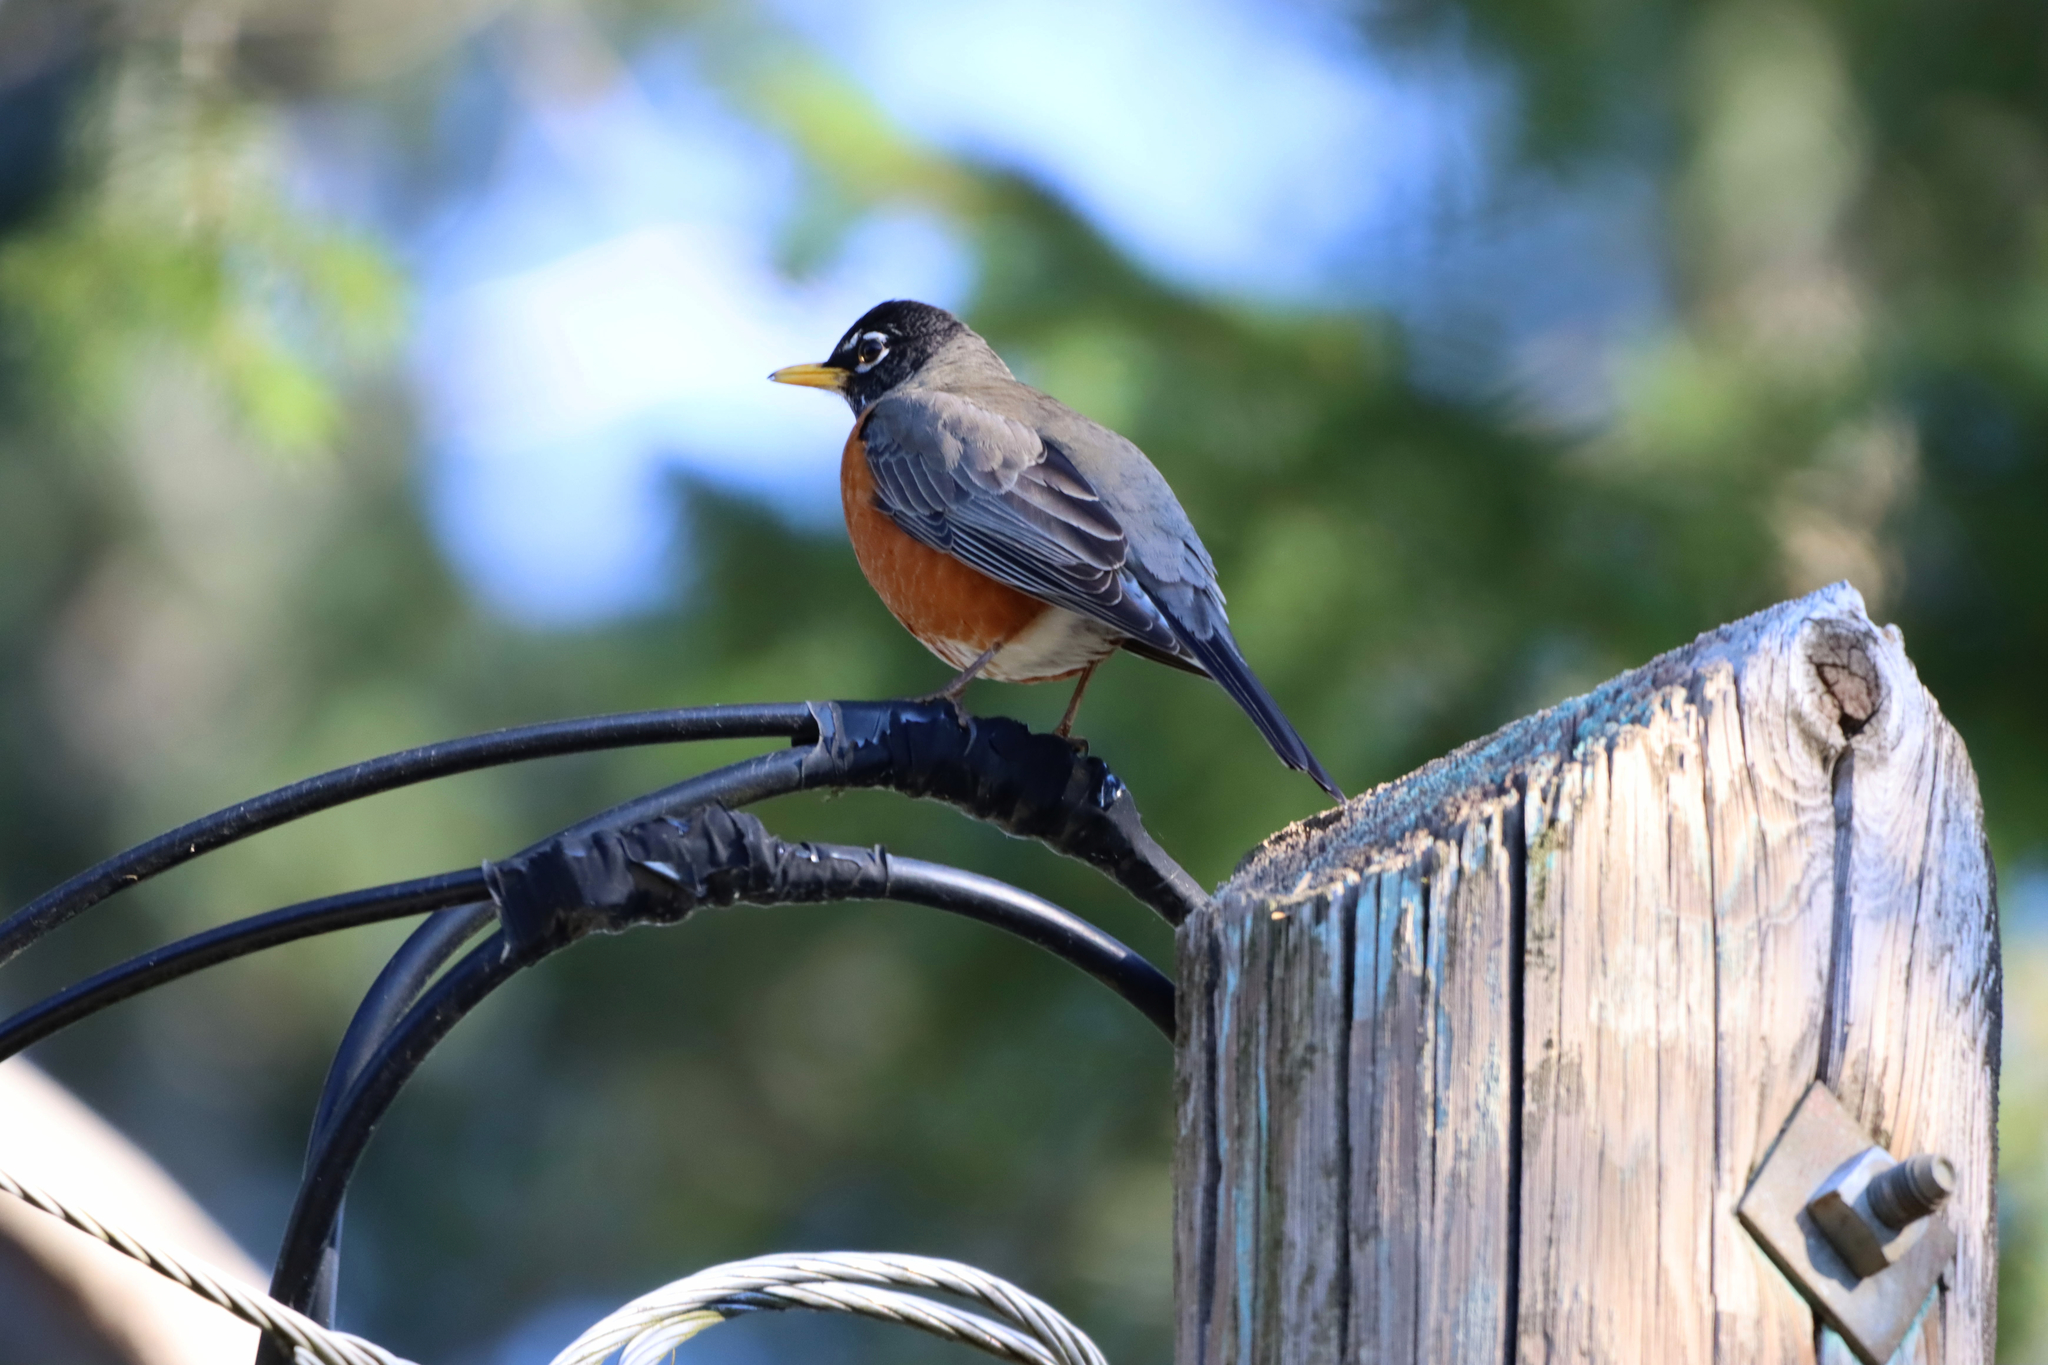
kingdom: Animalia
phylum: Chordata
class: Aves
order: Passeriformes
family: Turdidae
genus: Turdus
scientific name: Turdus migratorius
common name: American robin
